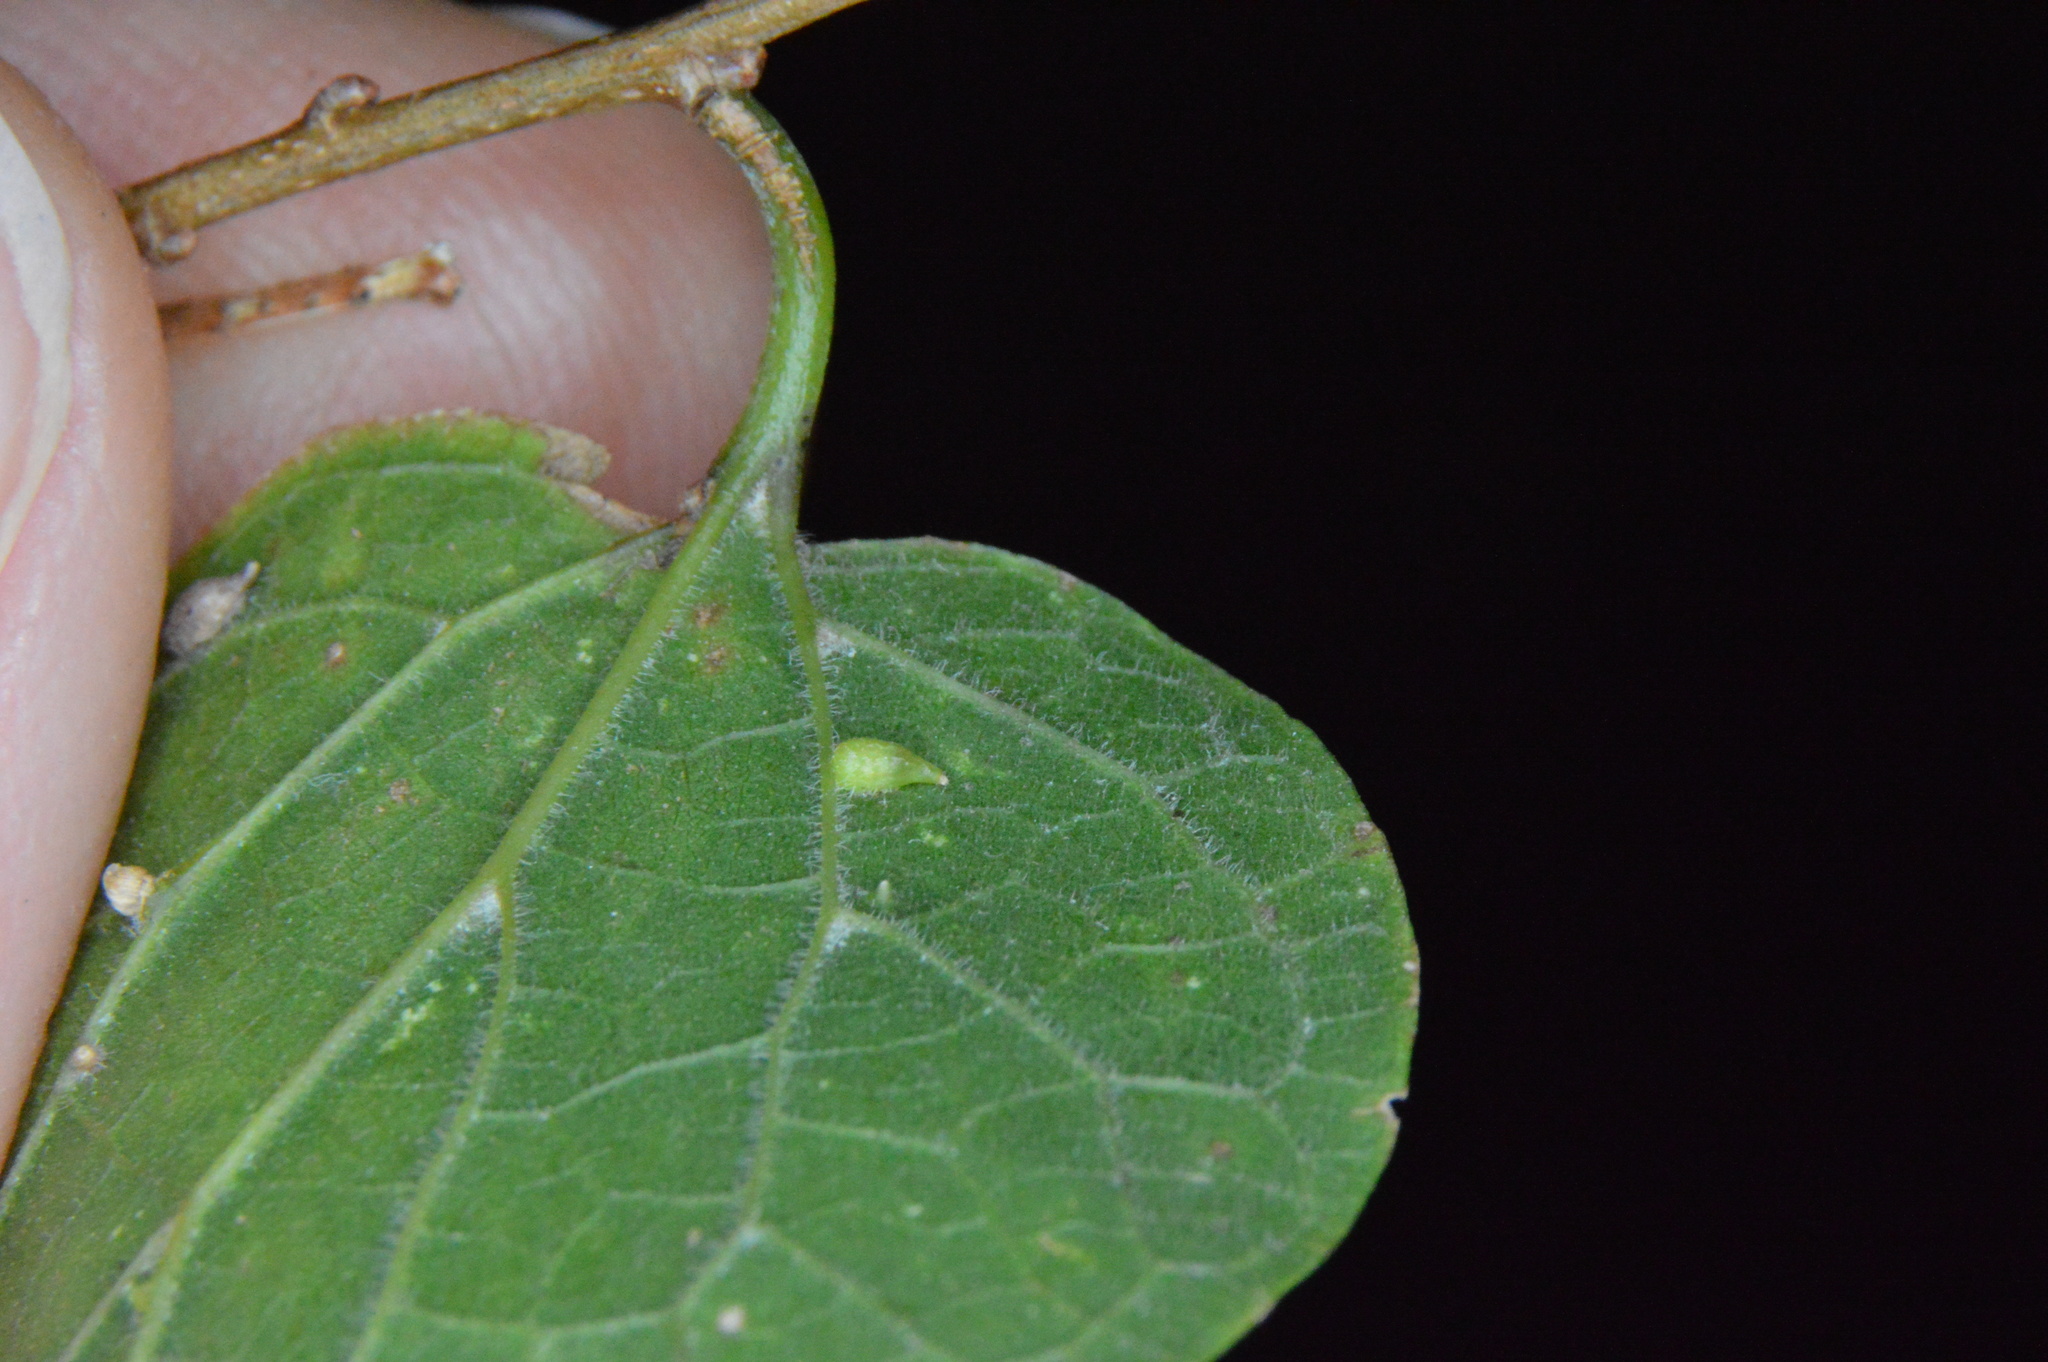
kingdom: Animalia
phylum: Arthropoda
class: Insecta
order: Diptera
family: Cecidomyiidae
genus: Celticecis
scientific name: Celticecis supina
